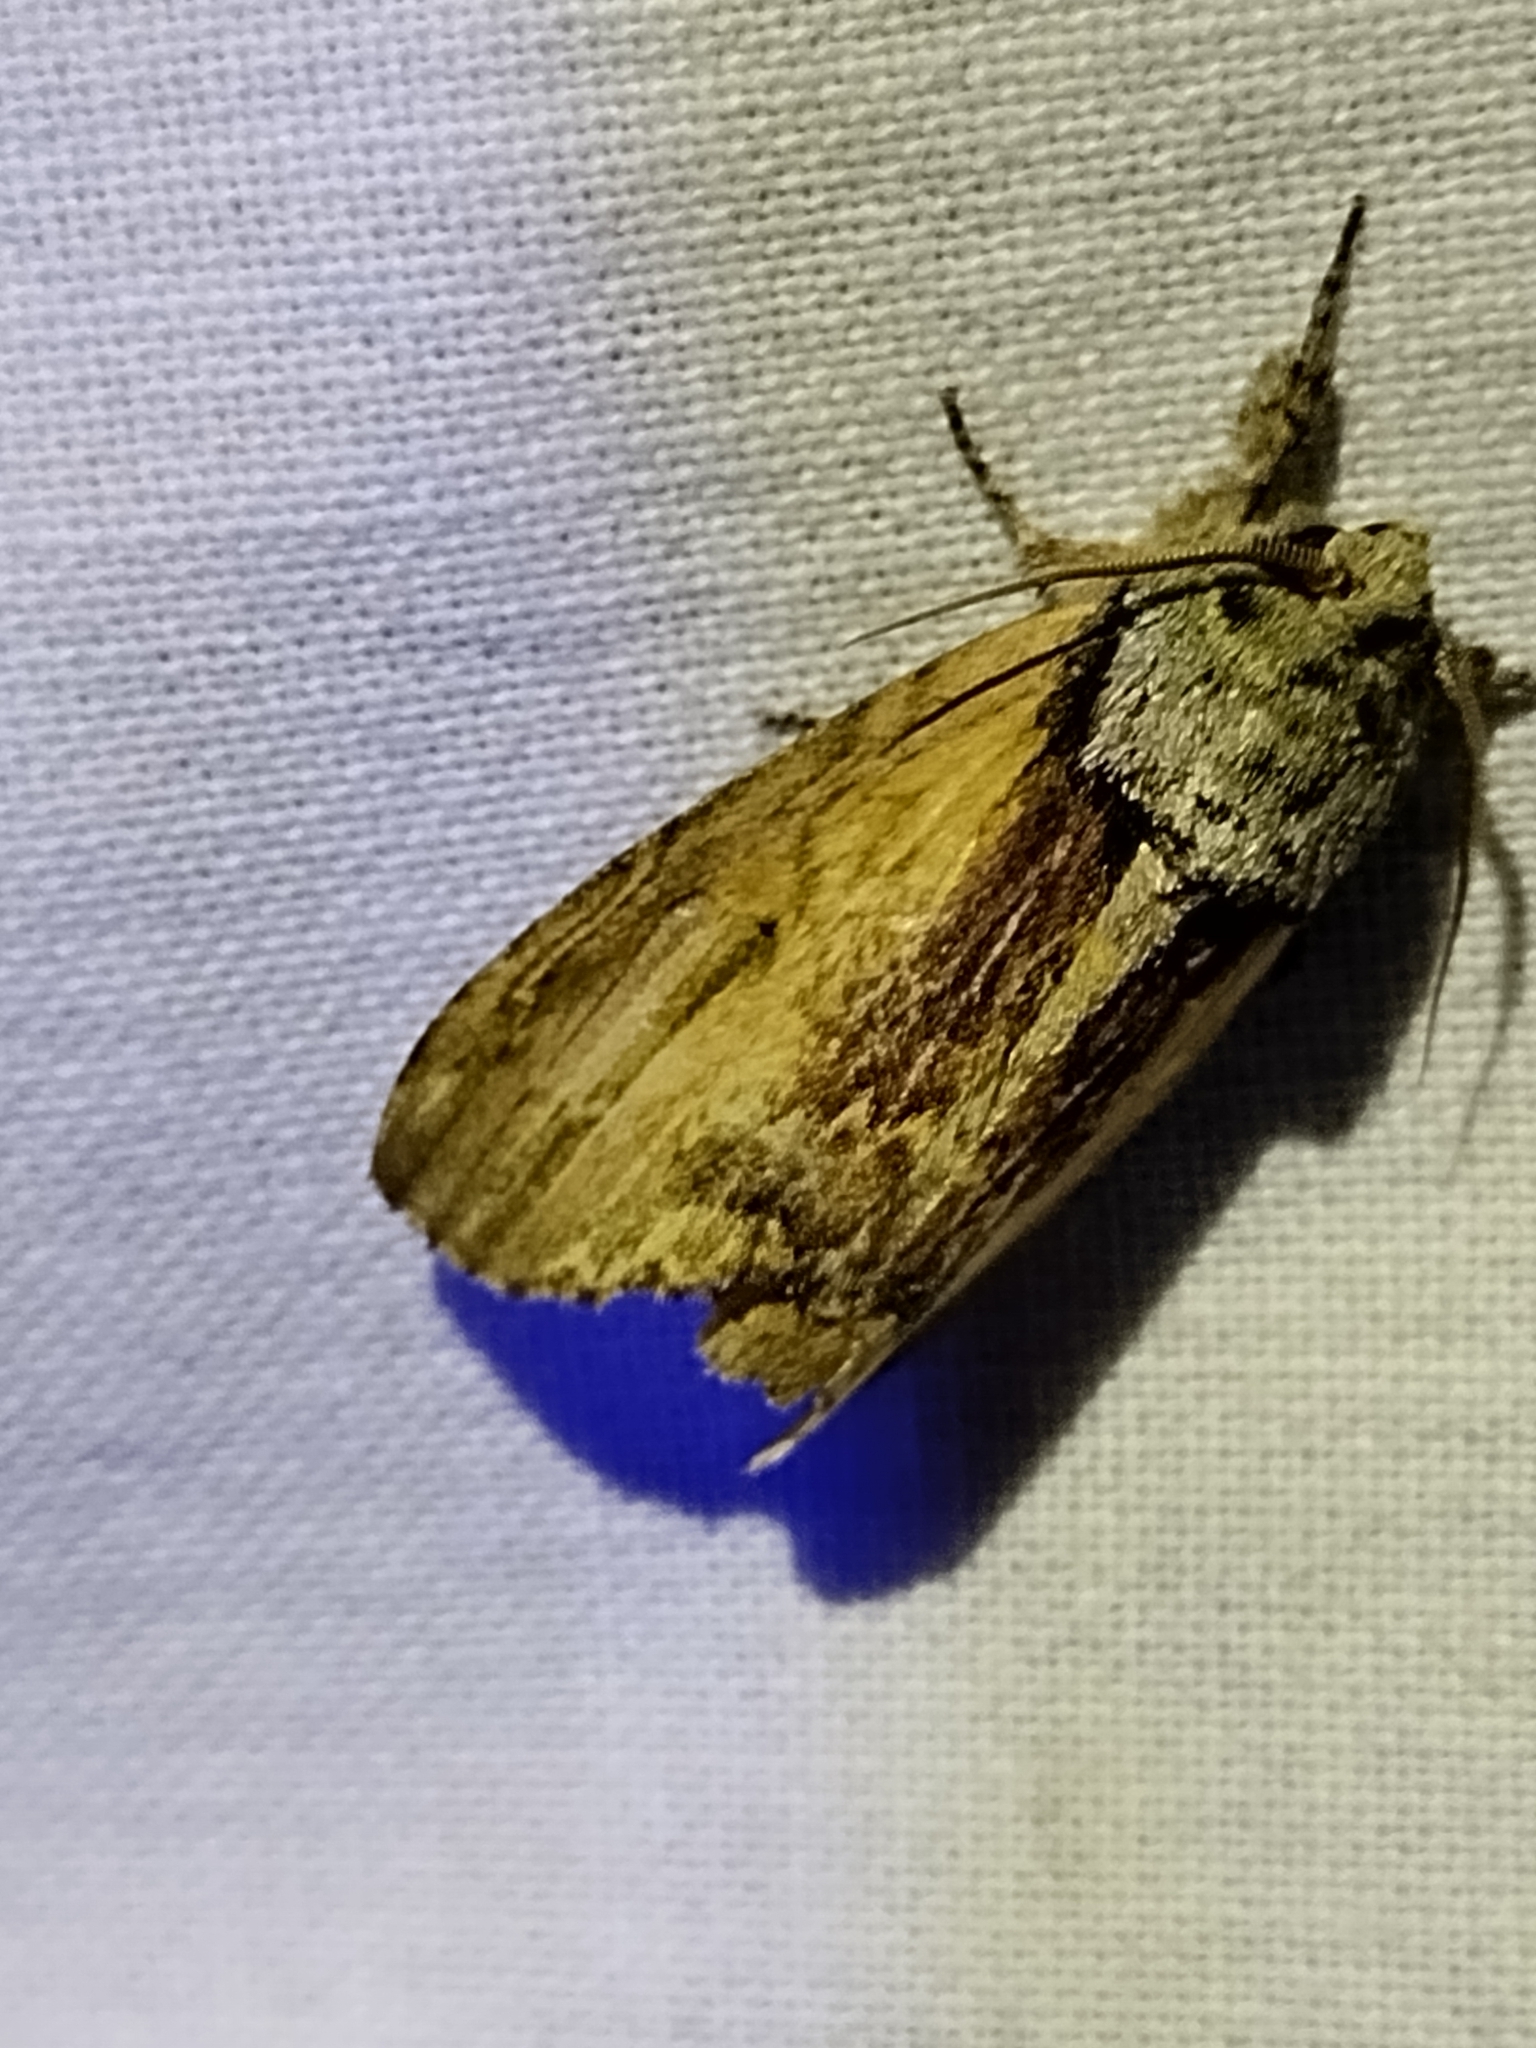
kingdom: Animalia
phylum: Arthropoda
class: Insecta
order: Lepidoptera
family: Notodontidae
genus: Schizura
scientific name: Schizura
